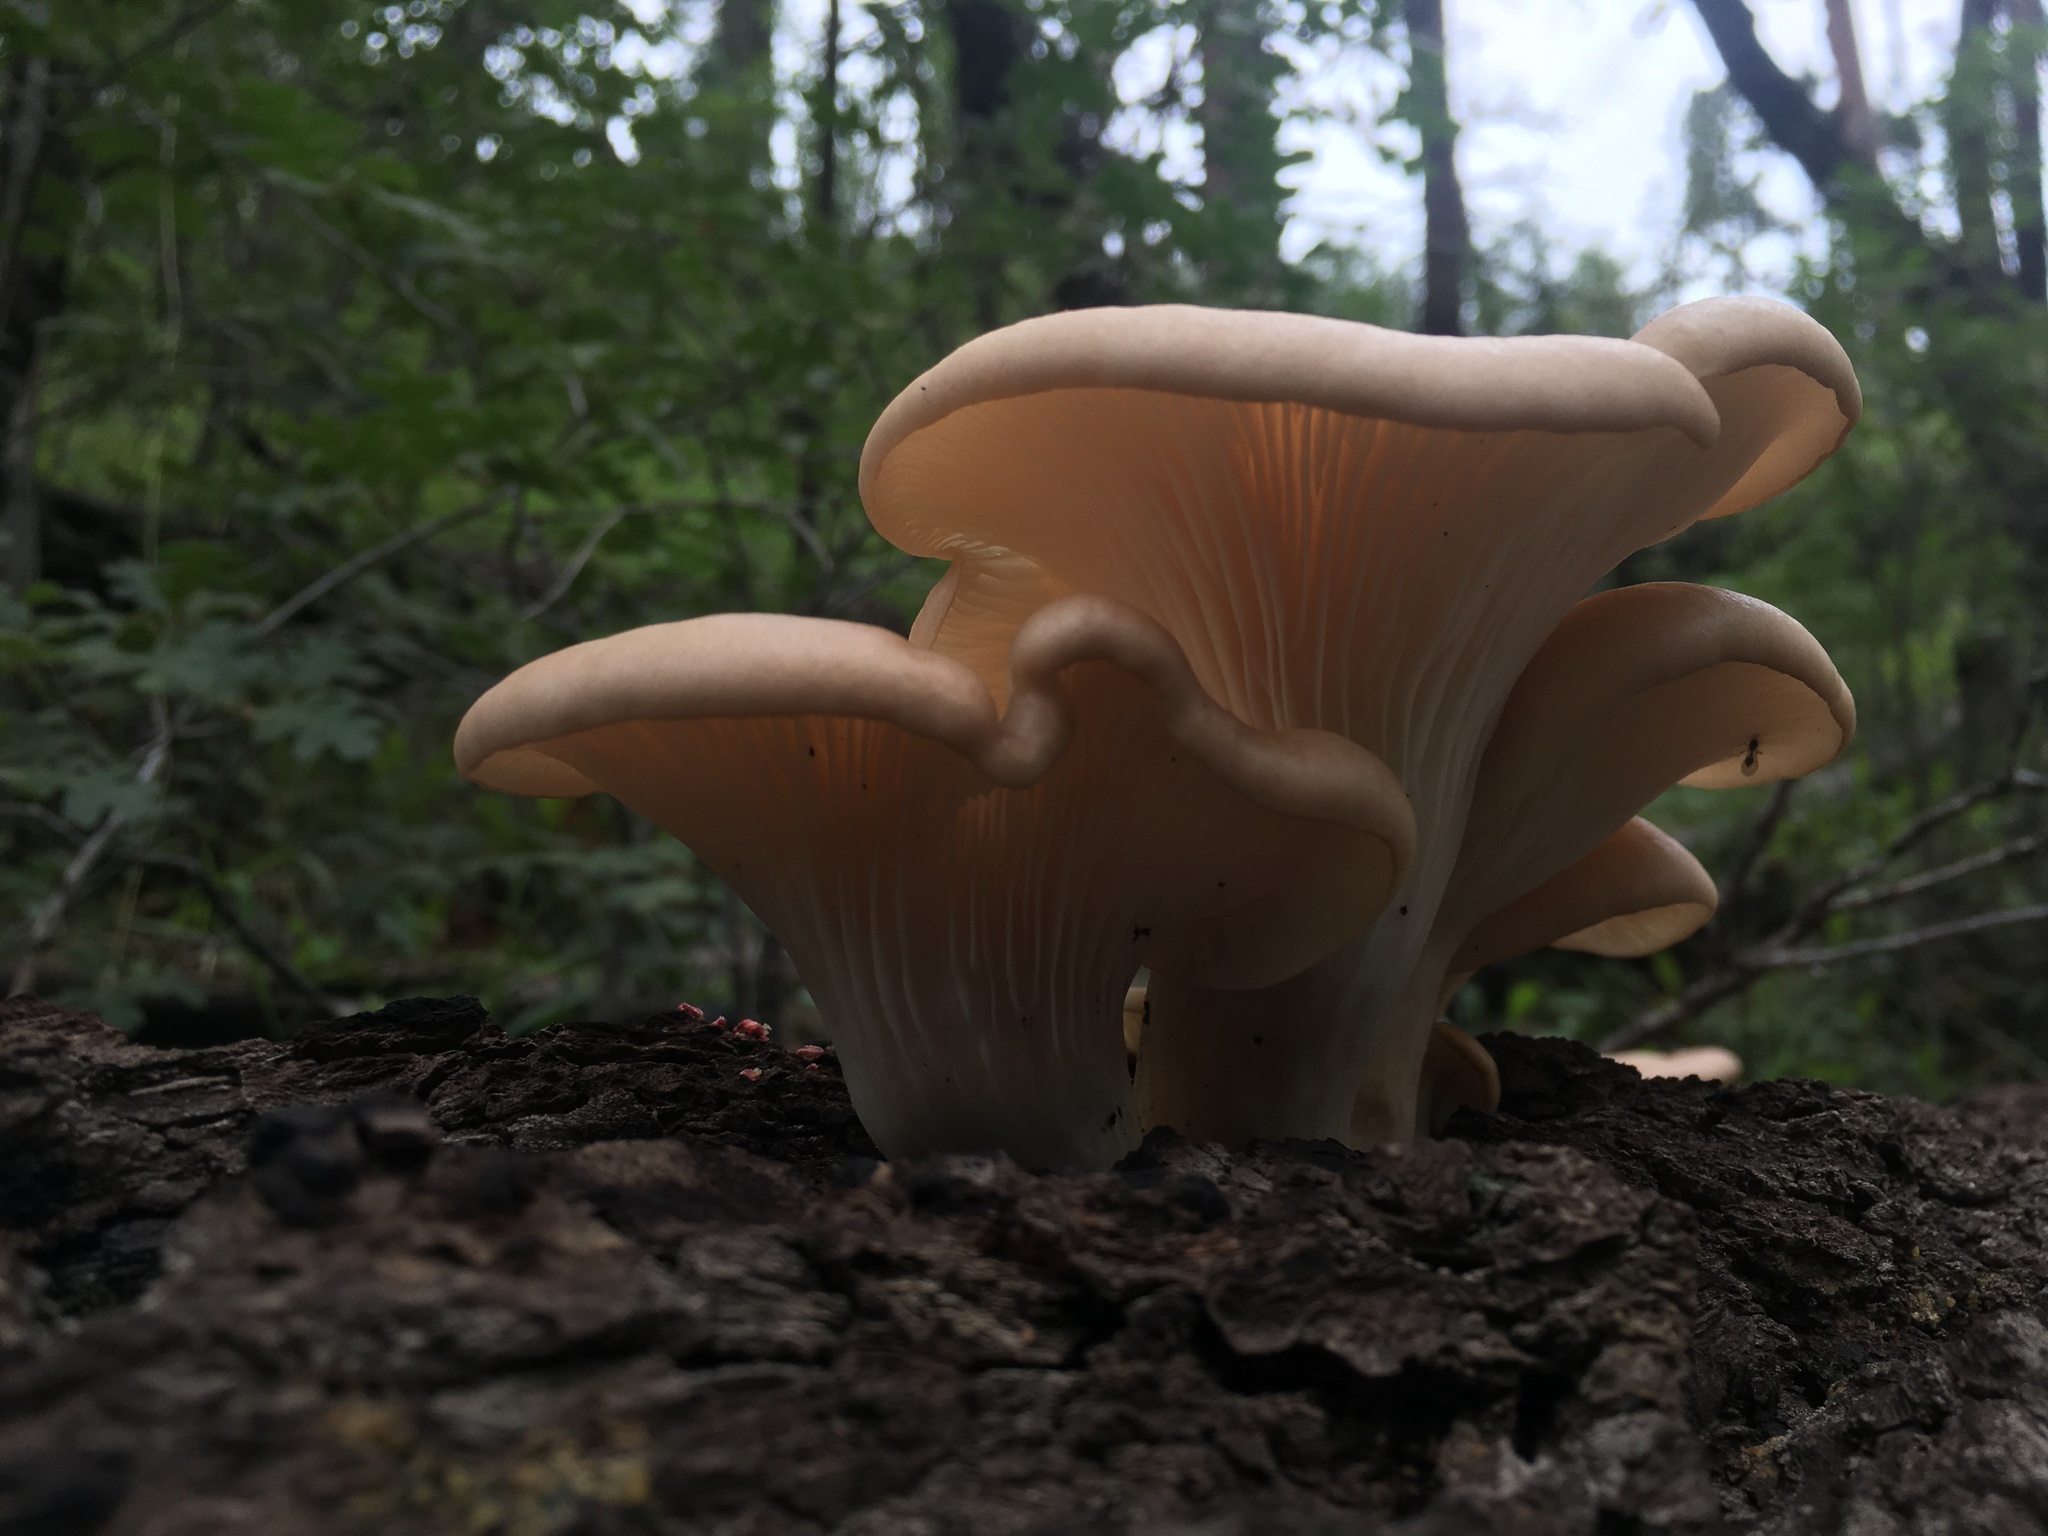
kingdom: Fungi
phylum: Basidiomycota
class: Agaricomycetes
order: Agaricales
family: Pleurotaceae
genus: Pleurotus
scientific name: Pleurotus pulmonarius
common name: Pale oyster
